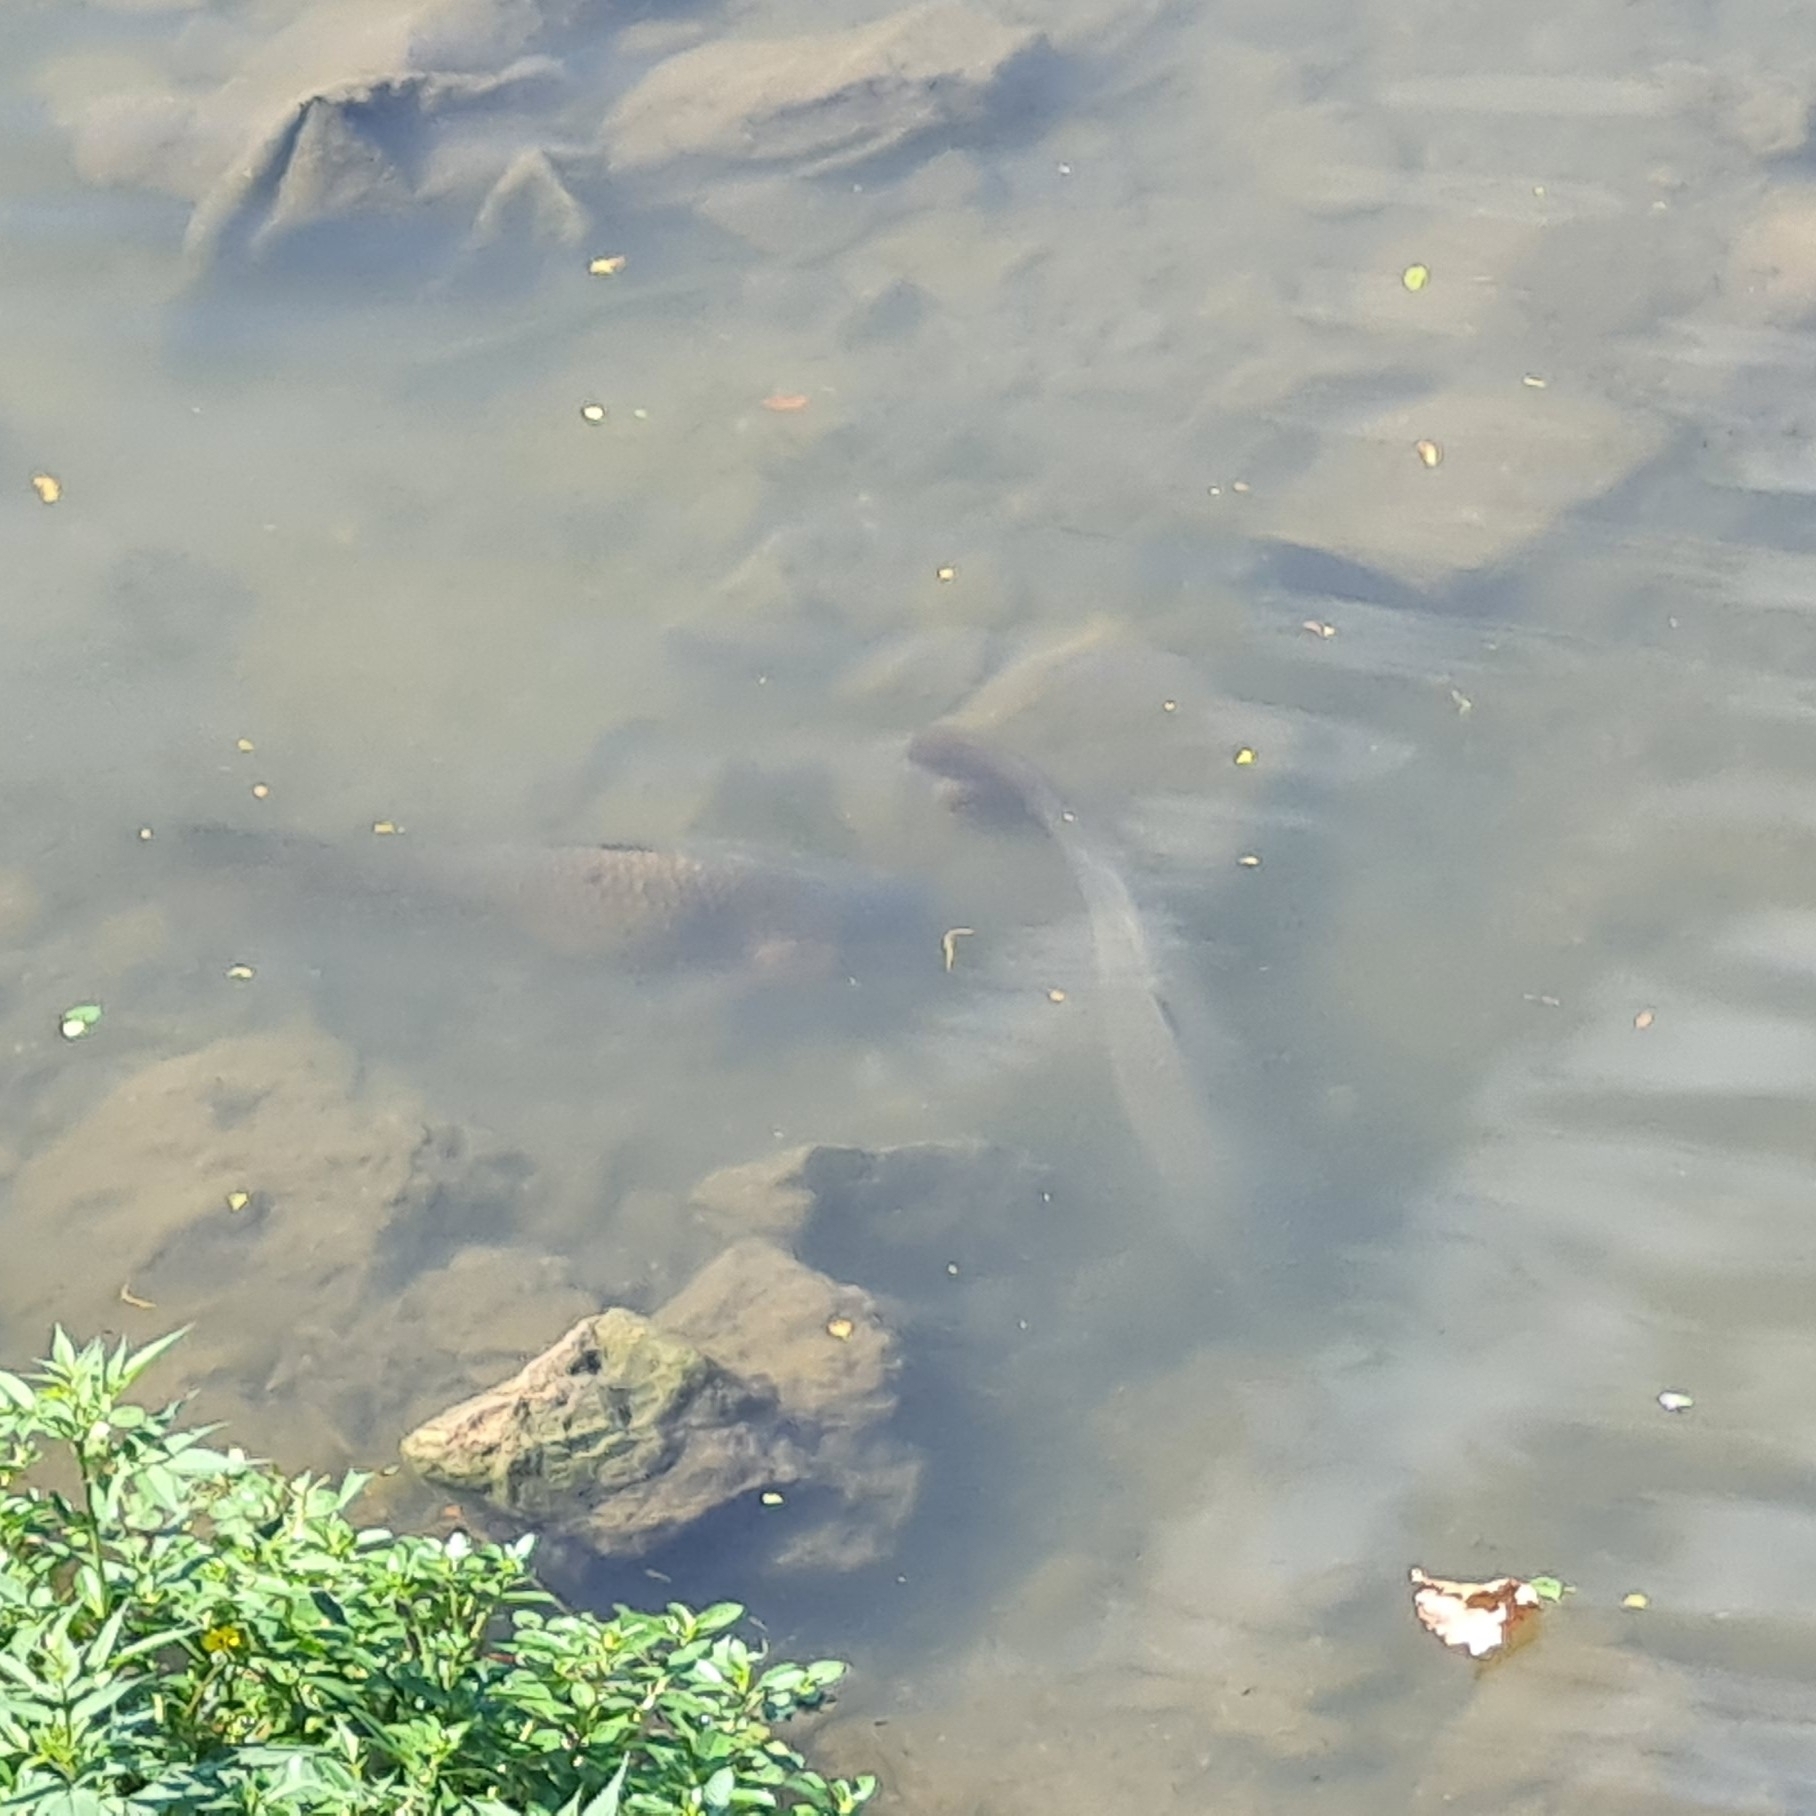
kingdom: Animalia
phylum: Chordata
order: Cypriniformes
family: Cyprinidae
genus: Cyprinus
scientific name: Cyprinus carpio
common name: Common carp
